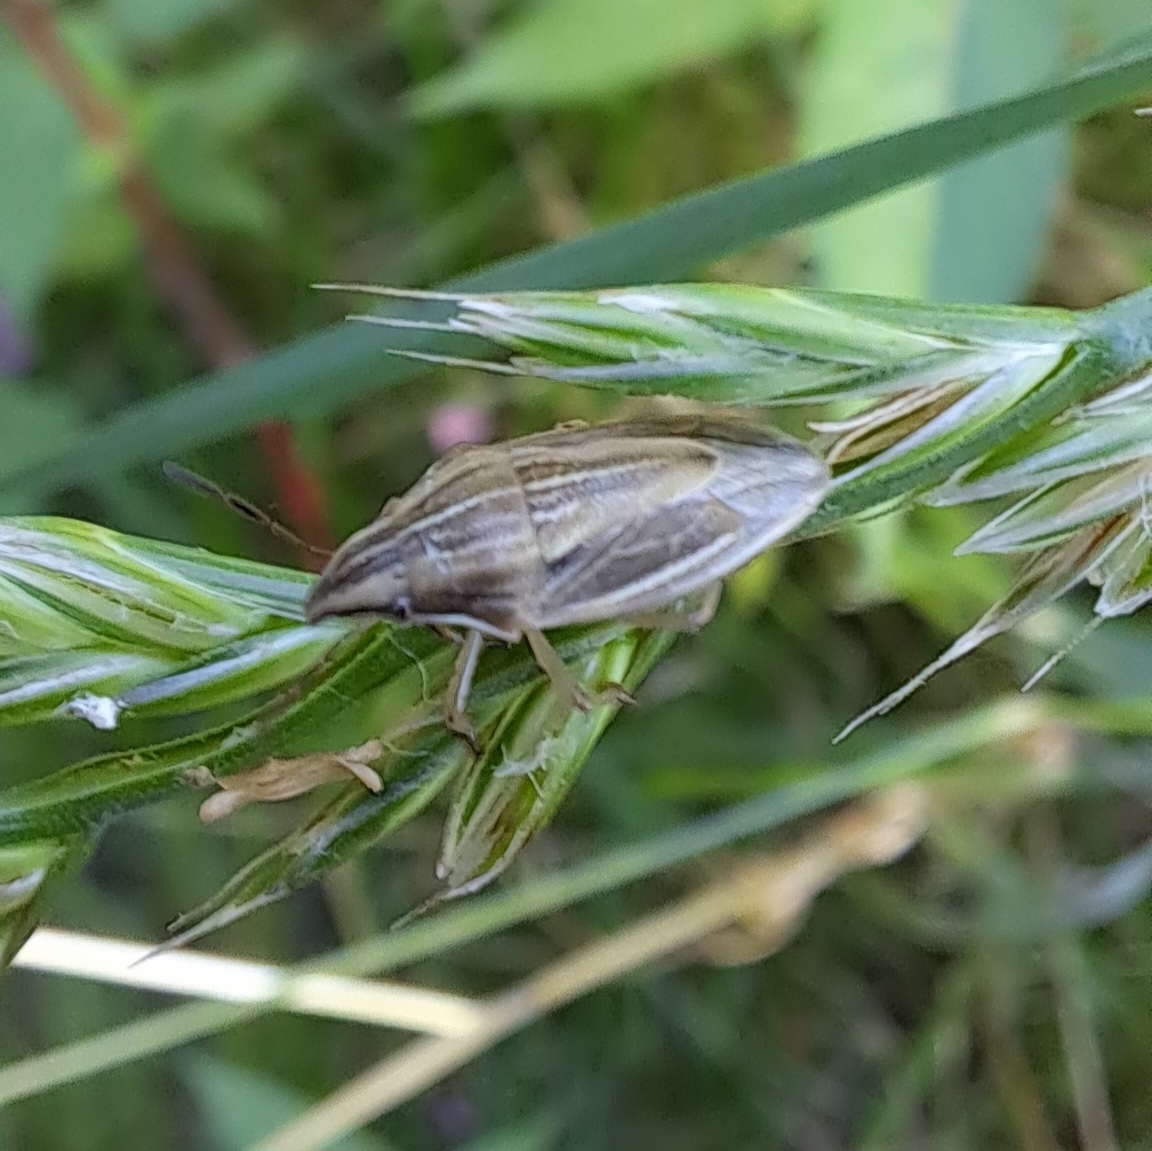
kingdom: Animalia
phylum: Arthropoda
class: Insecta
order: Hemiptera
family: Pentatomidae
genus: Aelia
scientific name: Aelia acuminata
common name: Bishop's mitre
